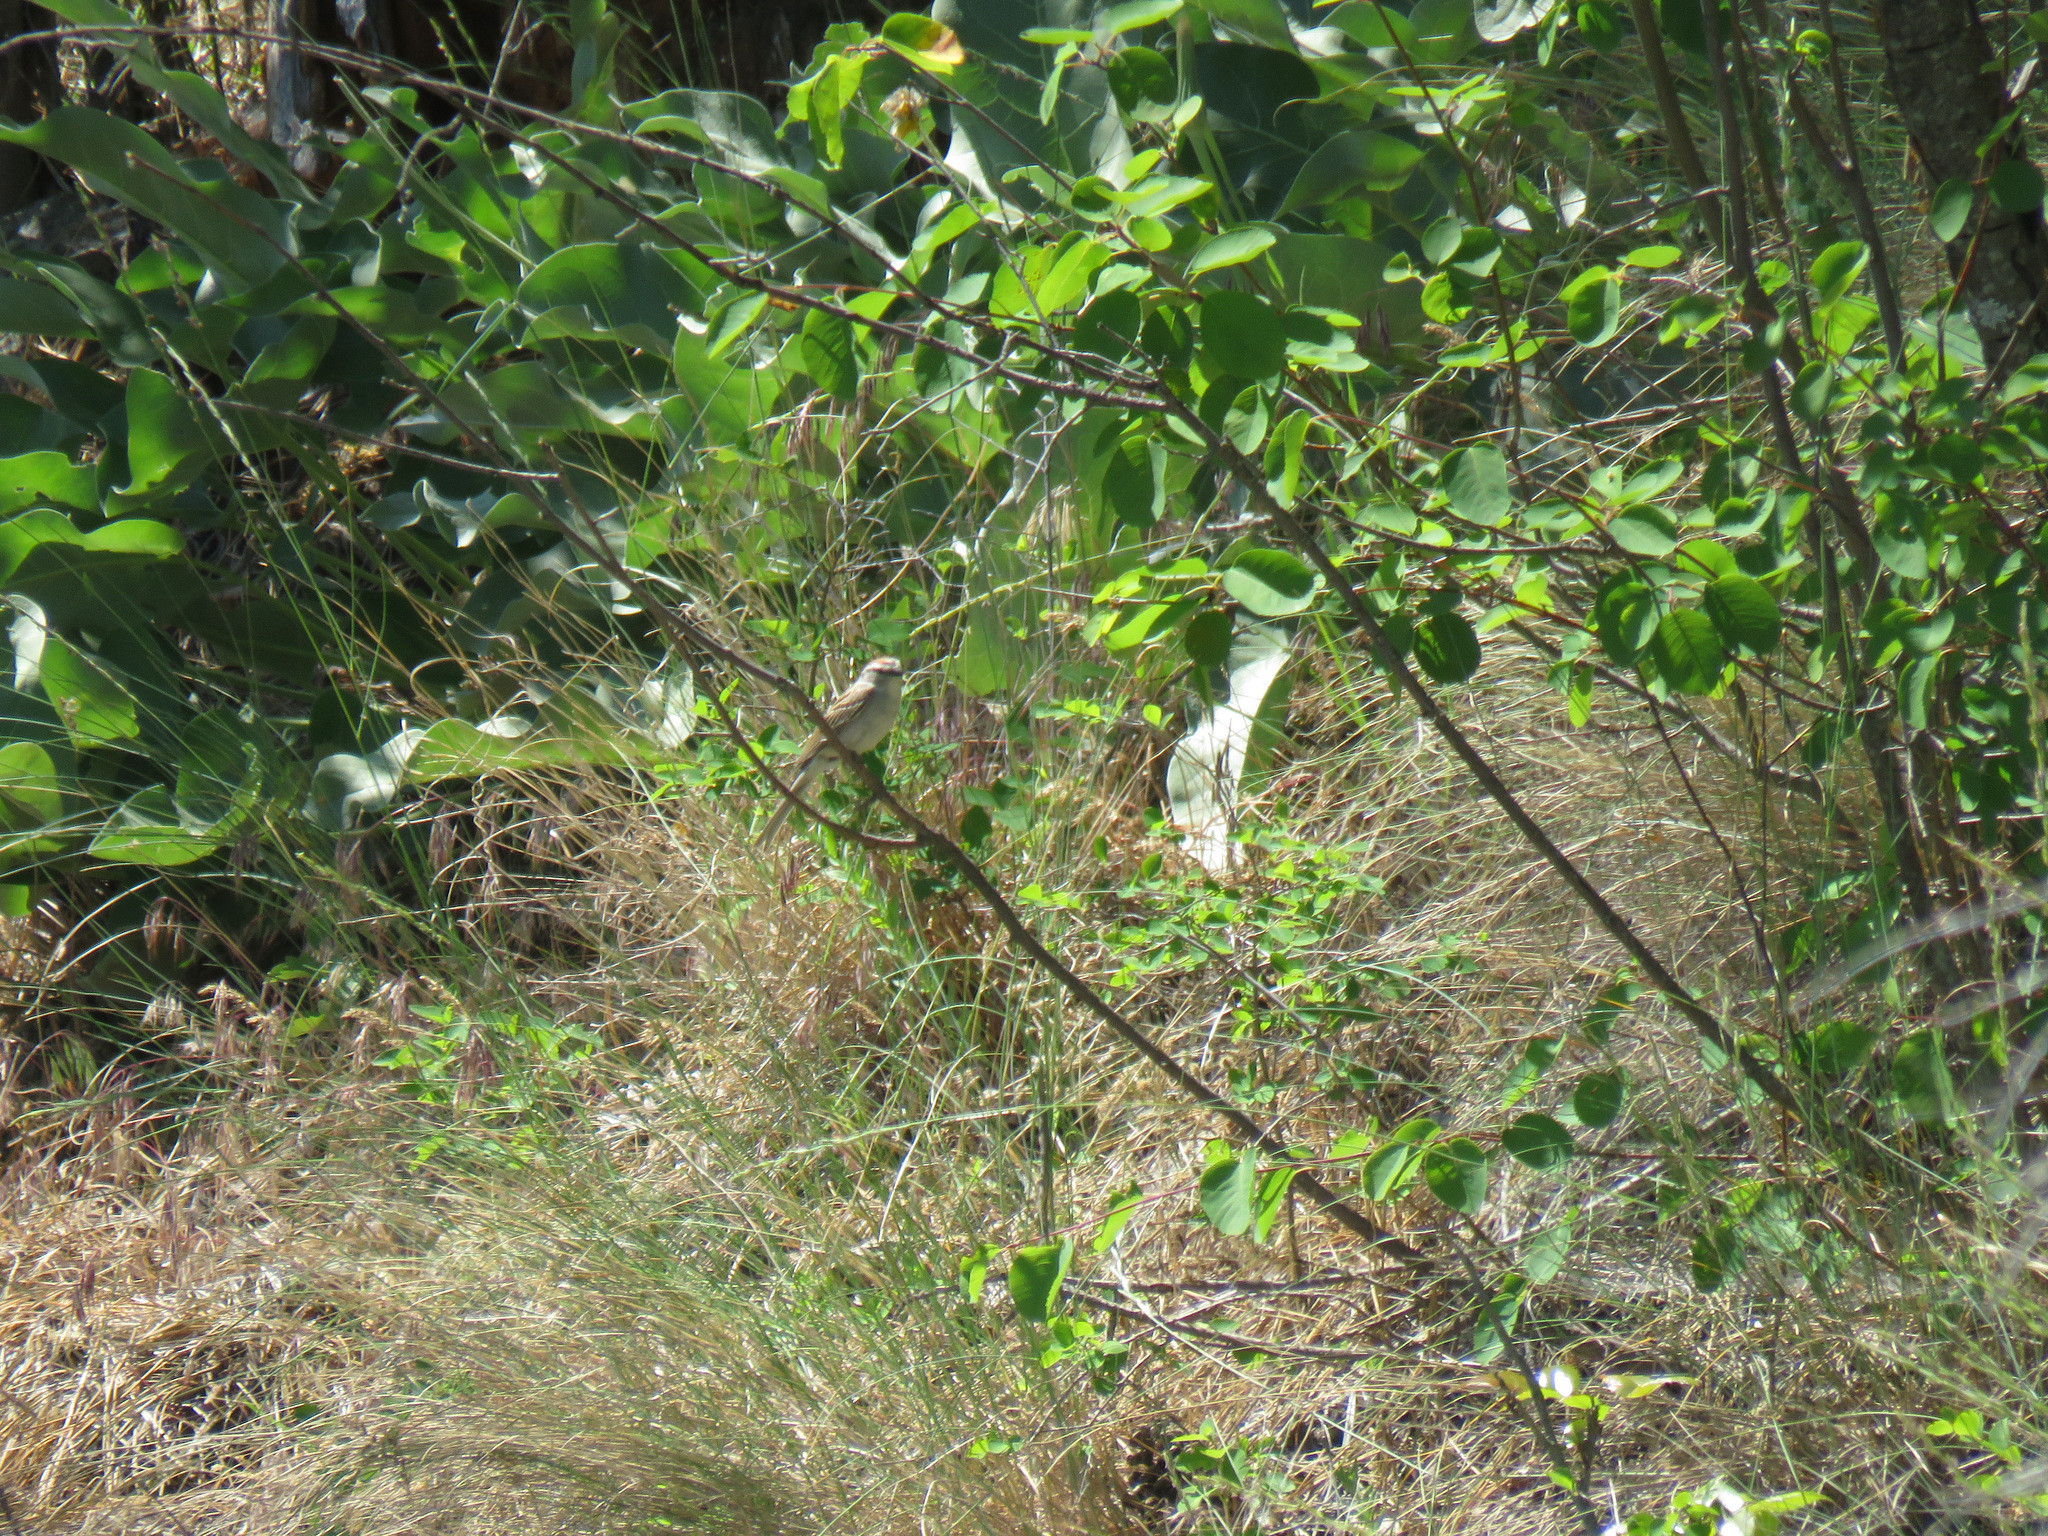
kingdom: Animalia
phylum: Chordata
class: Aves
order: Passeriformes
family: Passerellidae
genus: Spizella
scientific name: Spizella passerina
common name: Chipping sparrow
